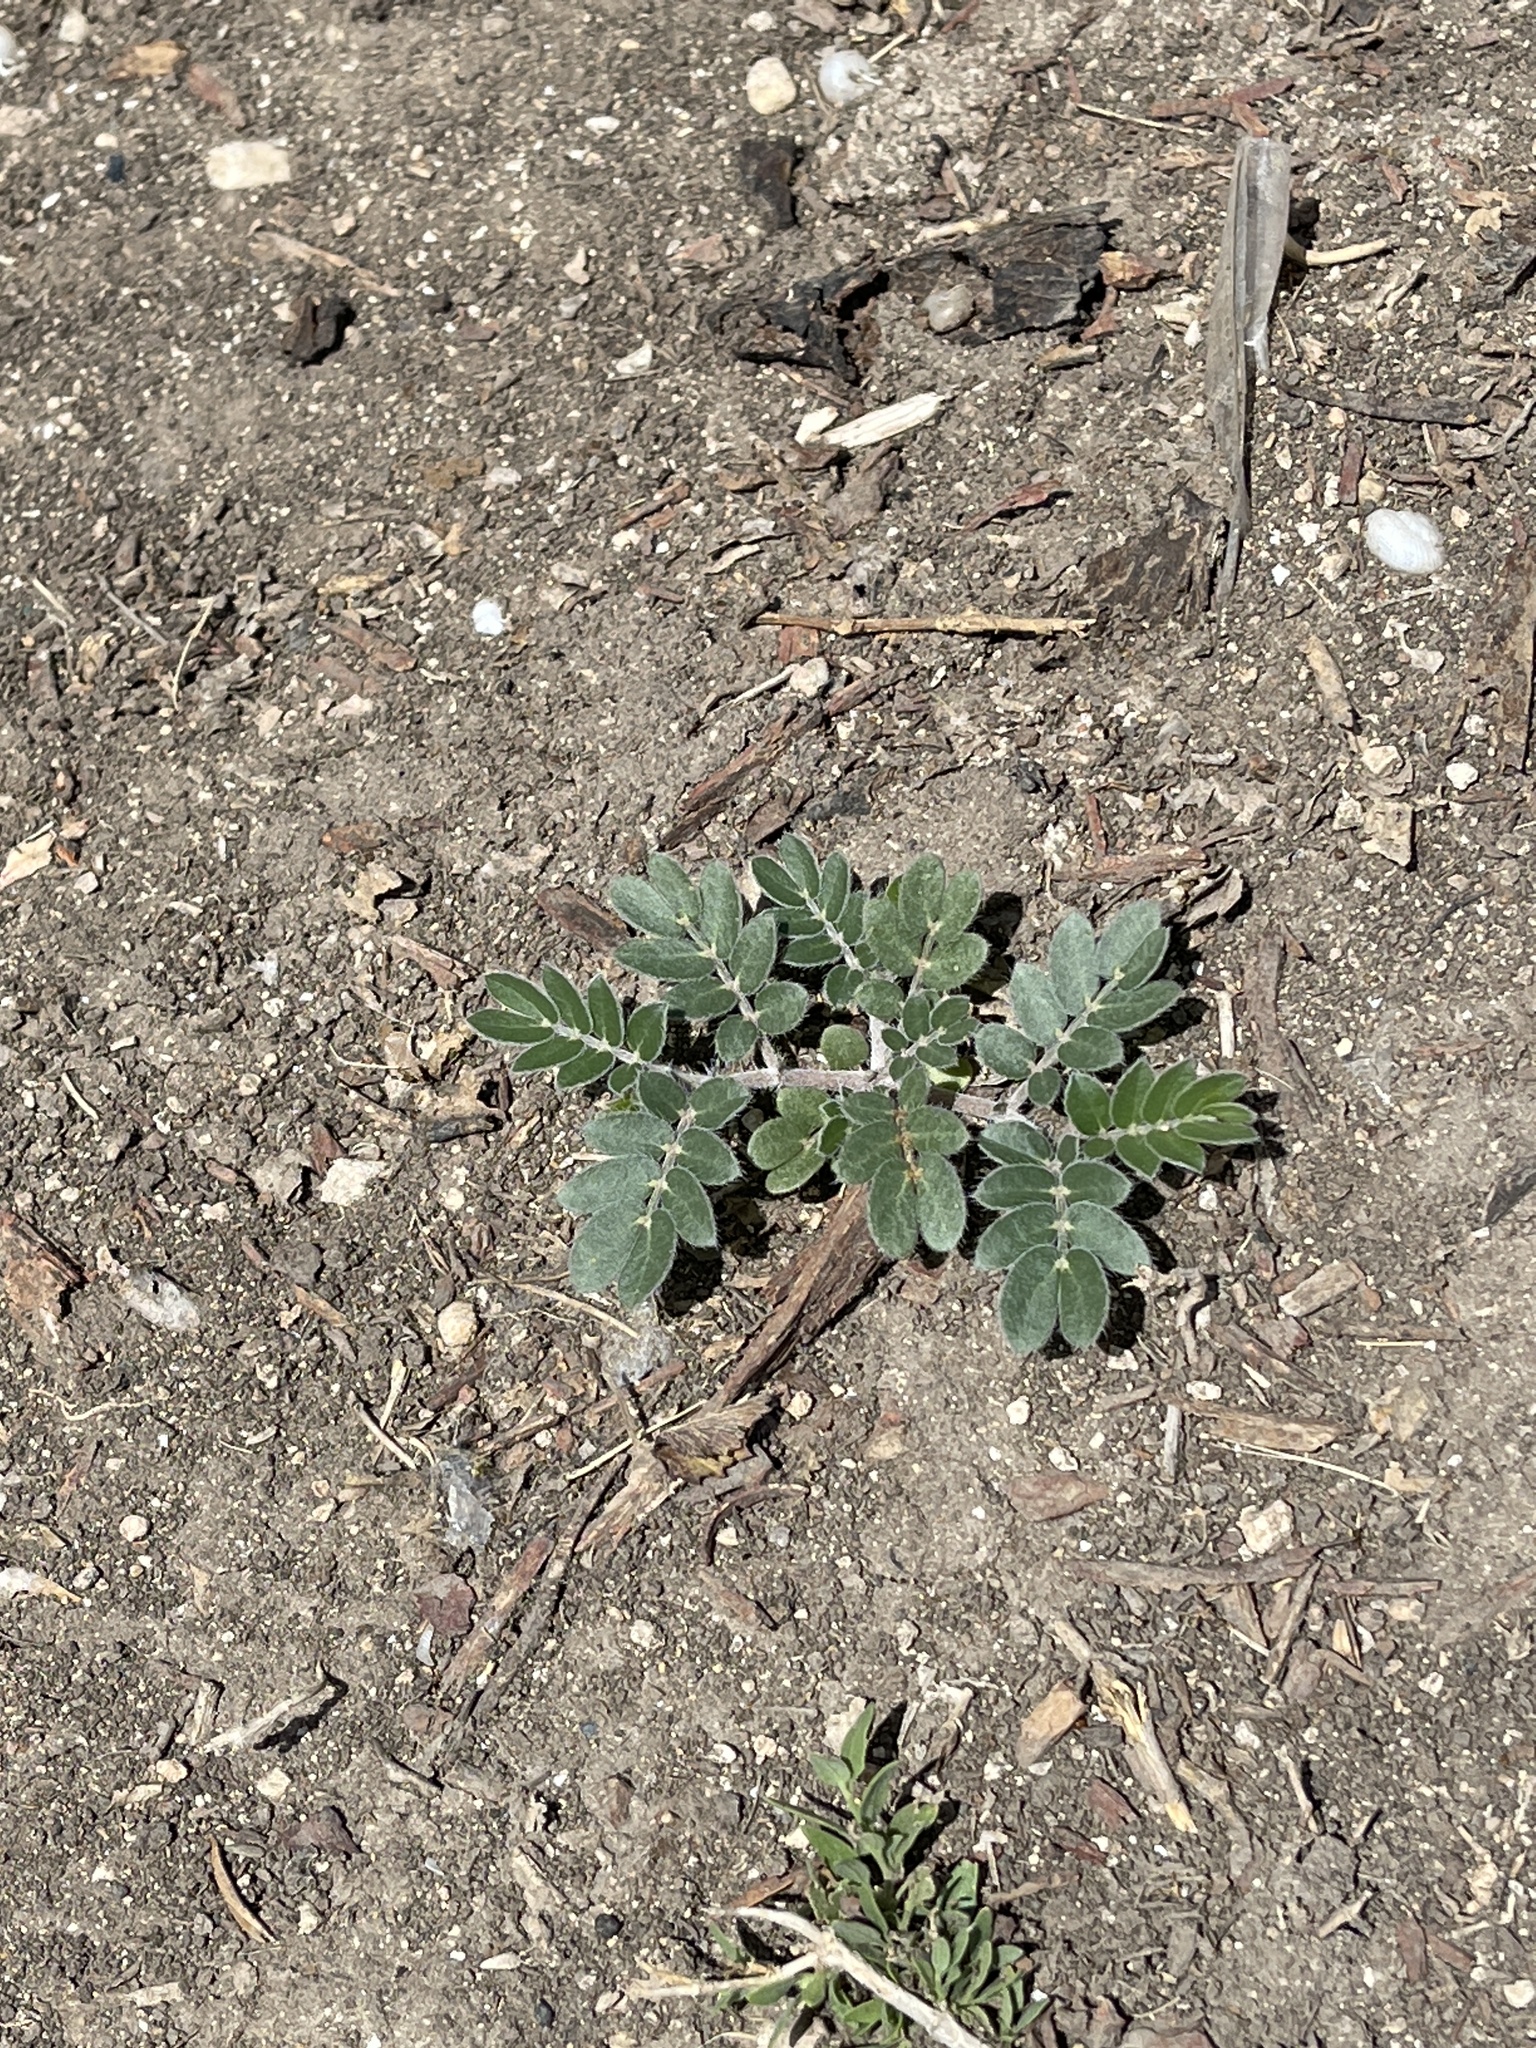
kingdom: Plantae
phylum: Tracheophyta
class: Magnoliopsida
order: Zygophyllales
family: Zygophyllaceae
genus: Kallstroemia
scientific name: Kallstroemia parviflora
